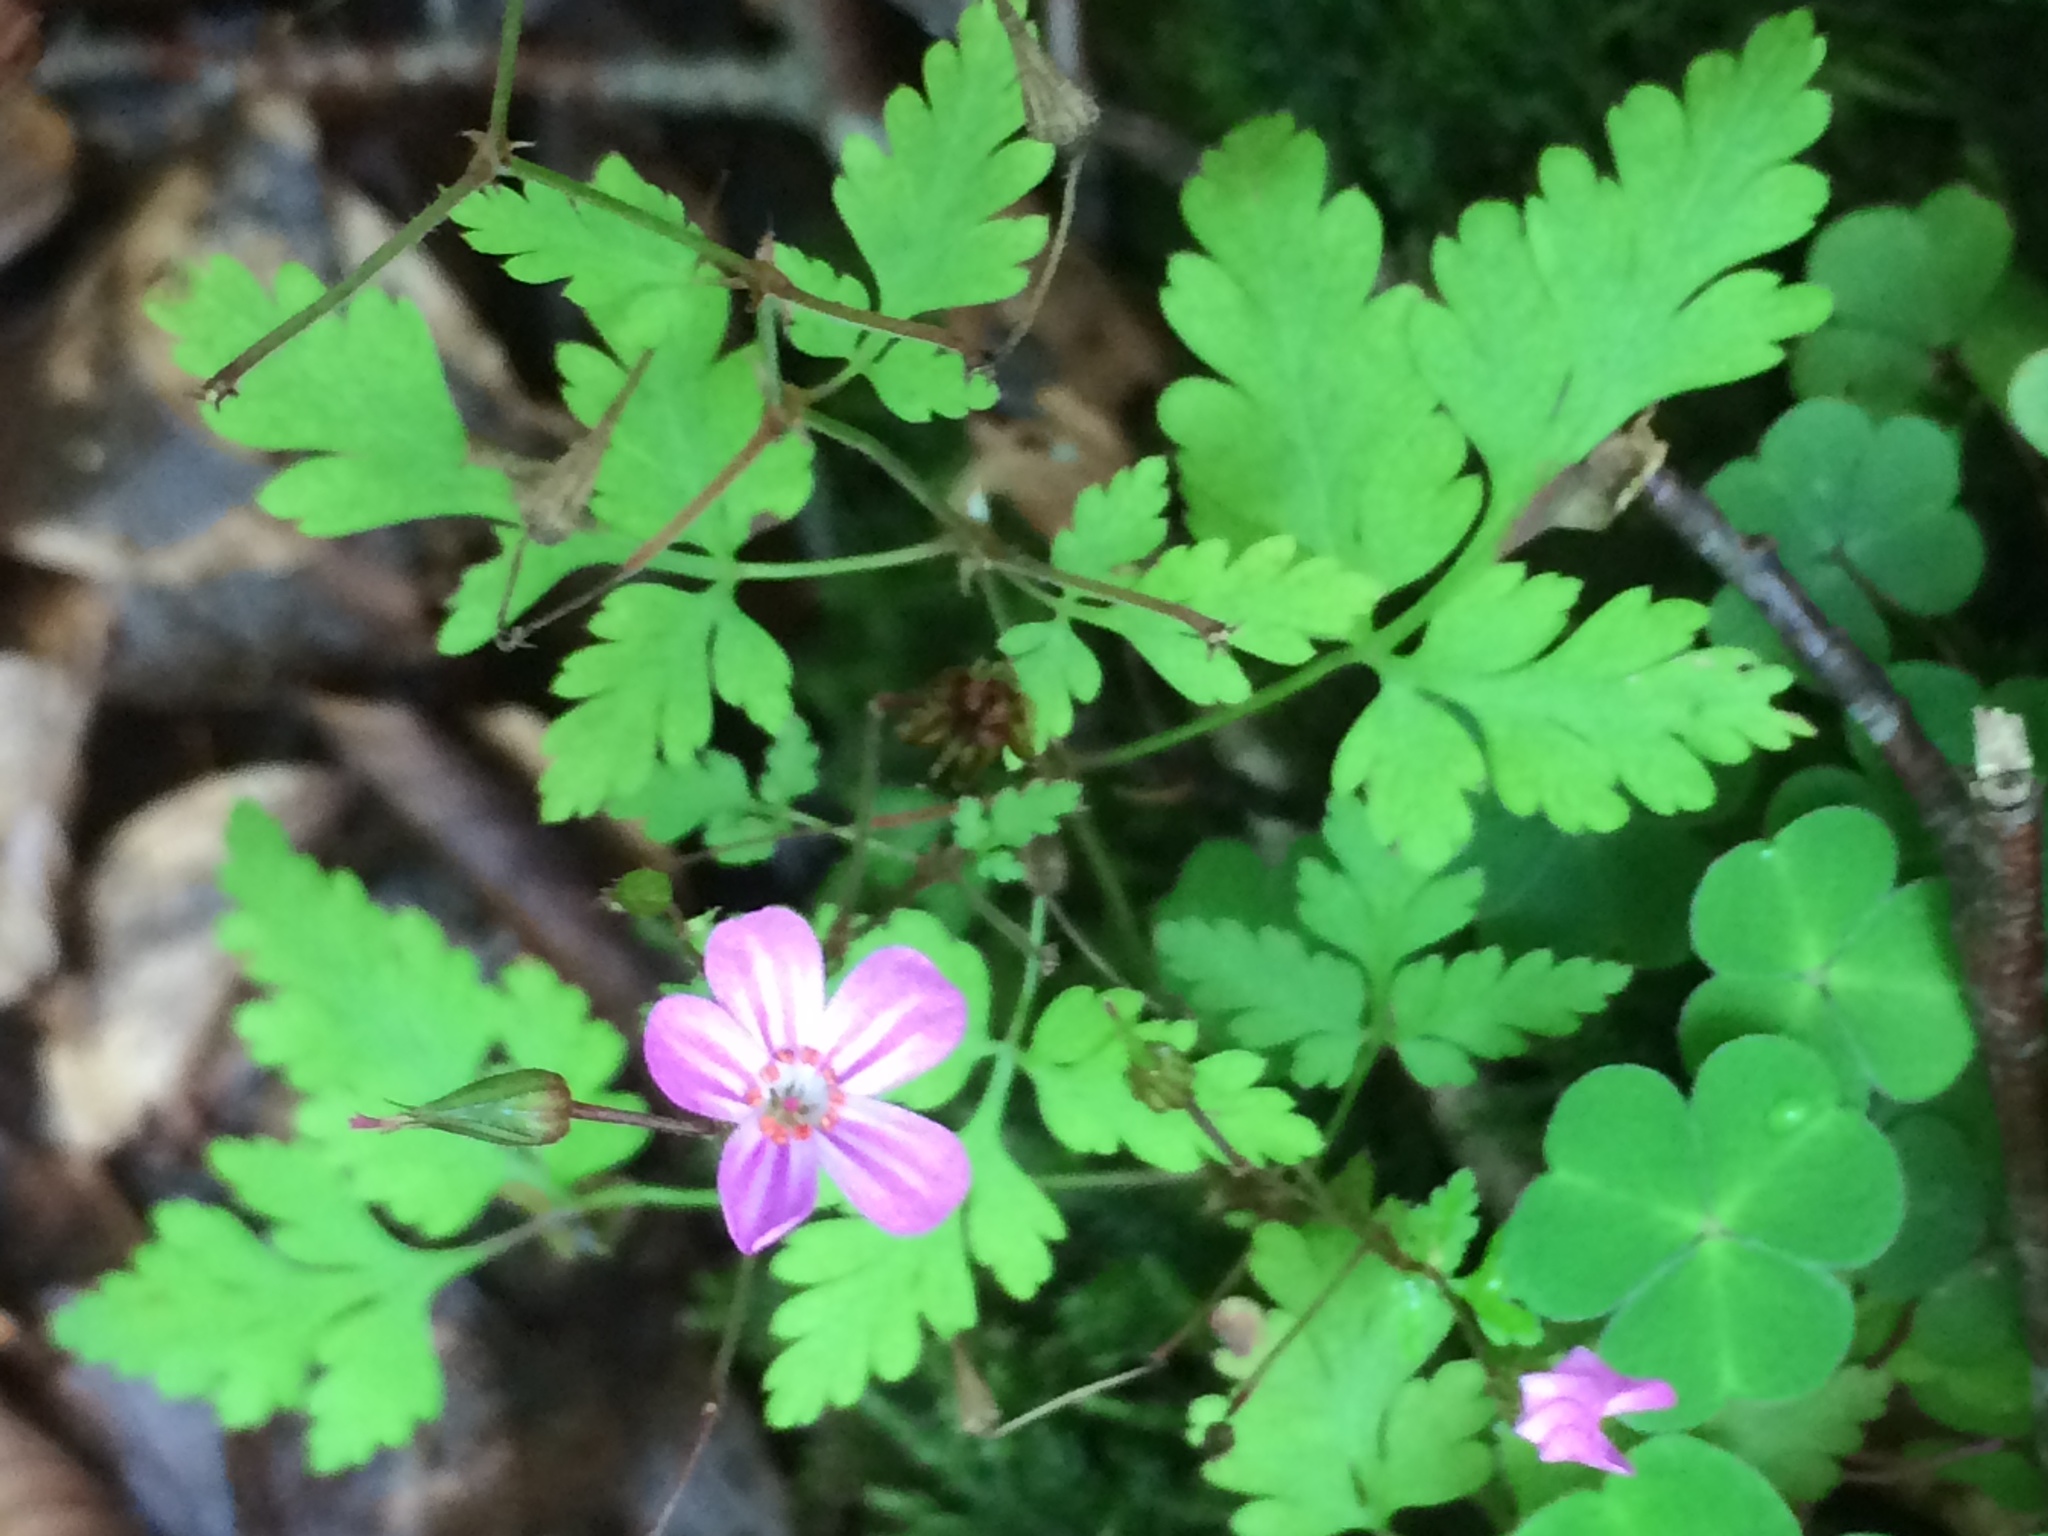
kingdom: Plantae
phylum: Tracheophyta
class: Magnoliopsida
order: Geraniales
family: Geraniaceae
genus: Geranium
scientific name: Geranium robertianum
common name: Herb-robert
